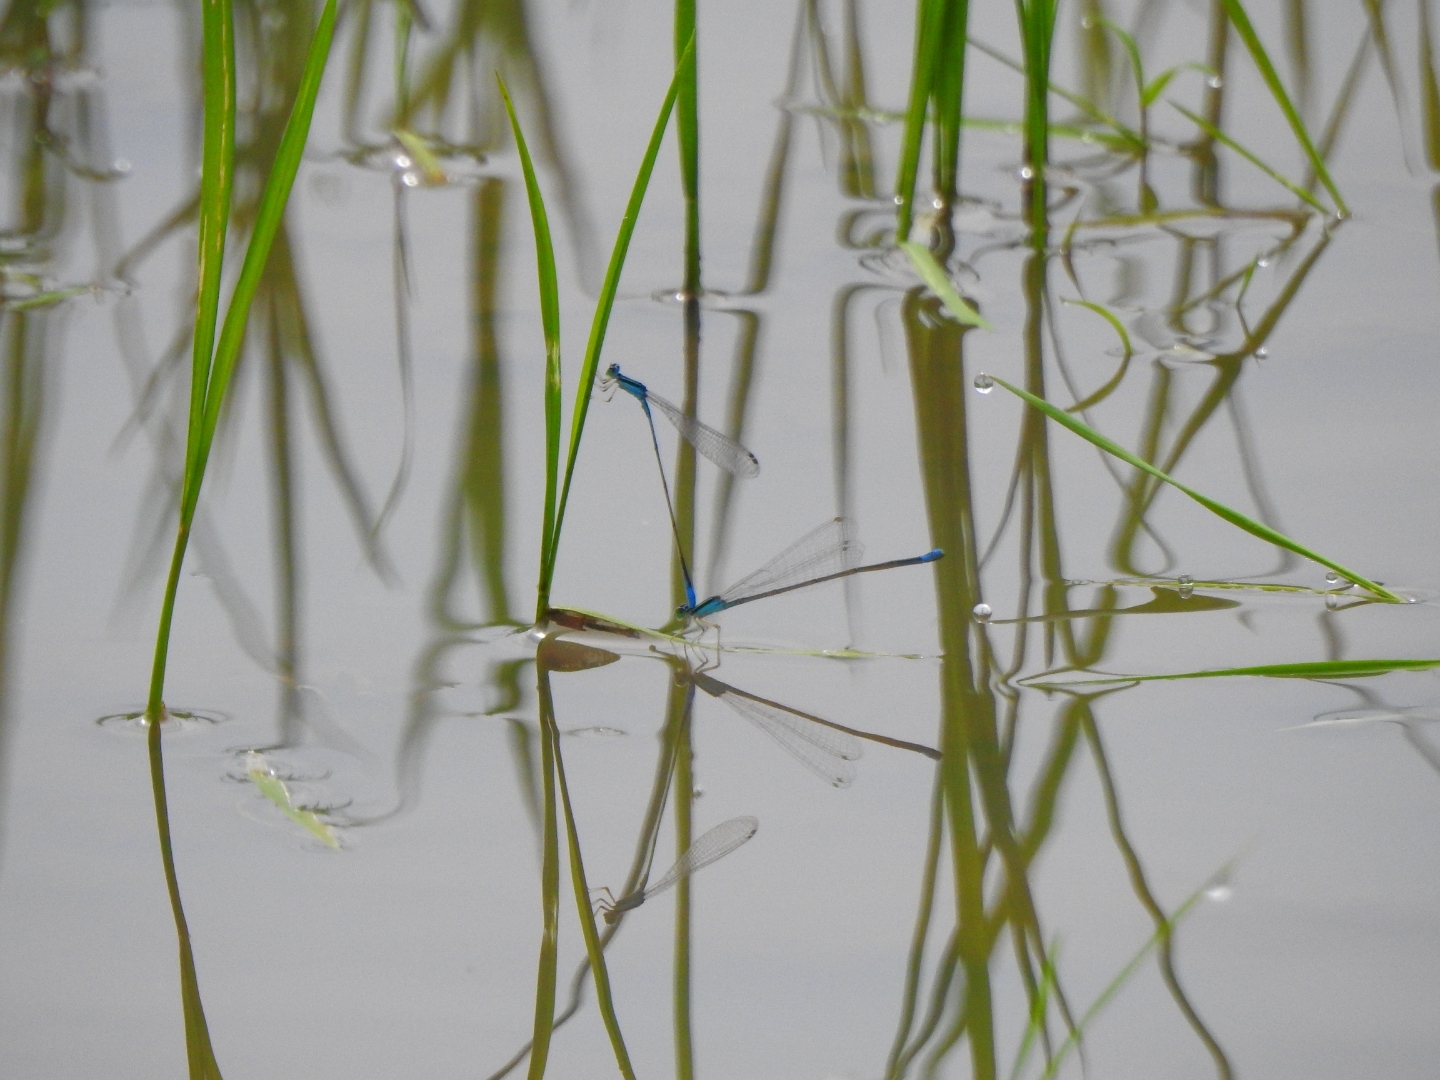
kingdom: Animalia
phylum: Arthropoda
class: Insecta
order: Odonata
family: Coenagrionidae
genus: Aciagrion
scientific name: Aciagrion occidentale
